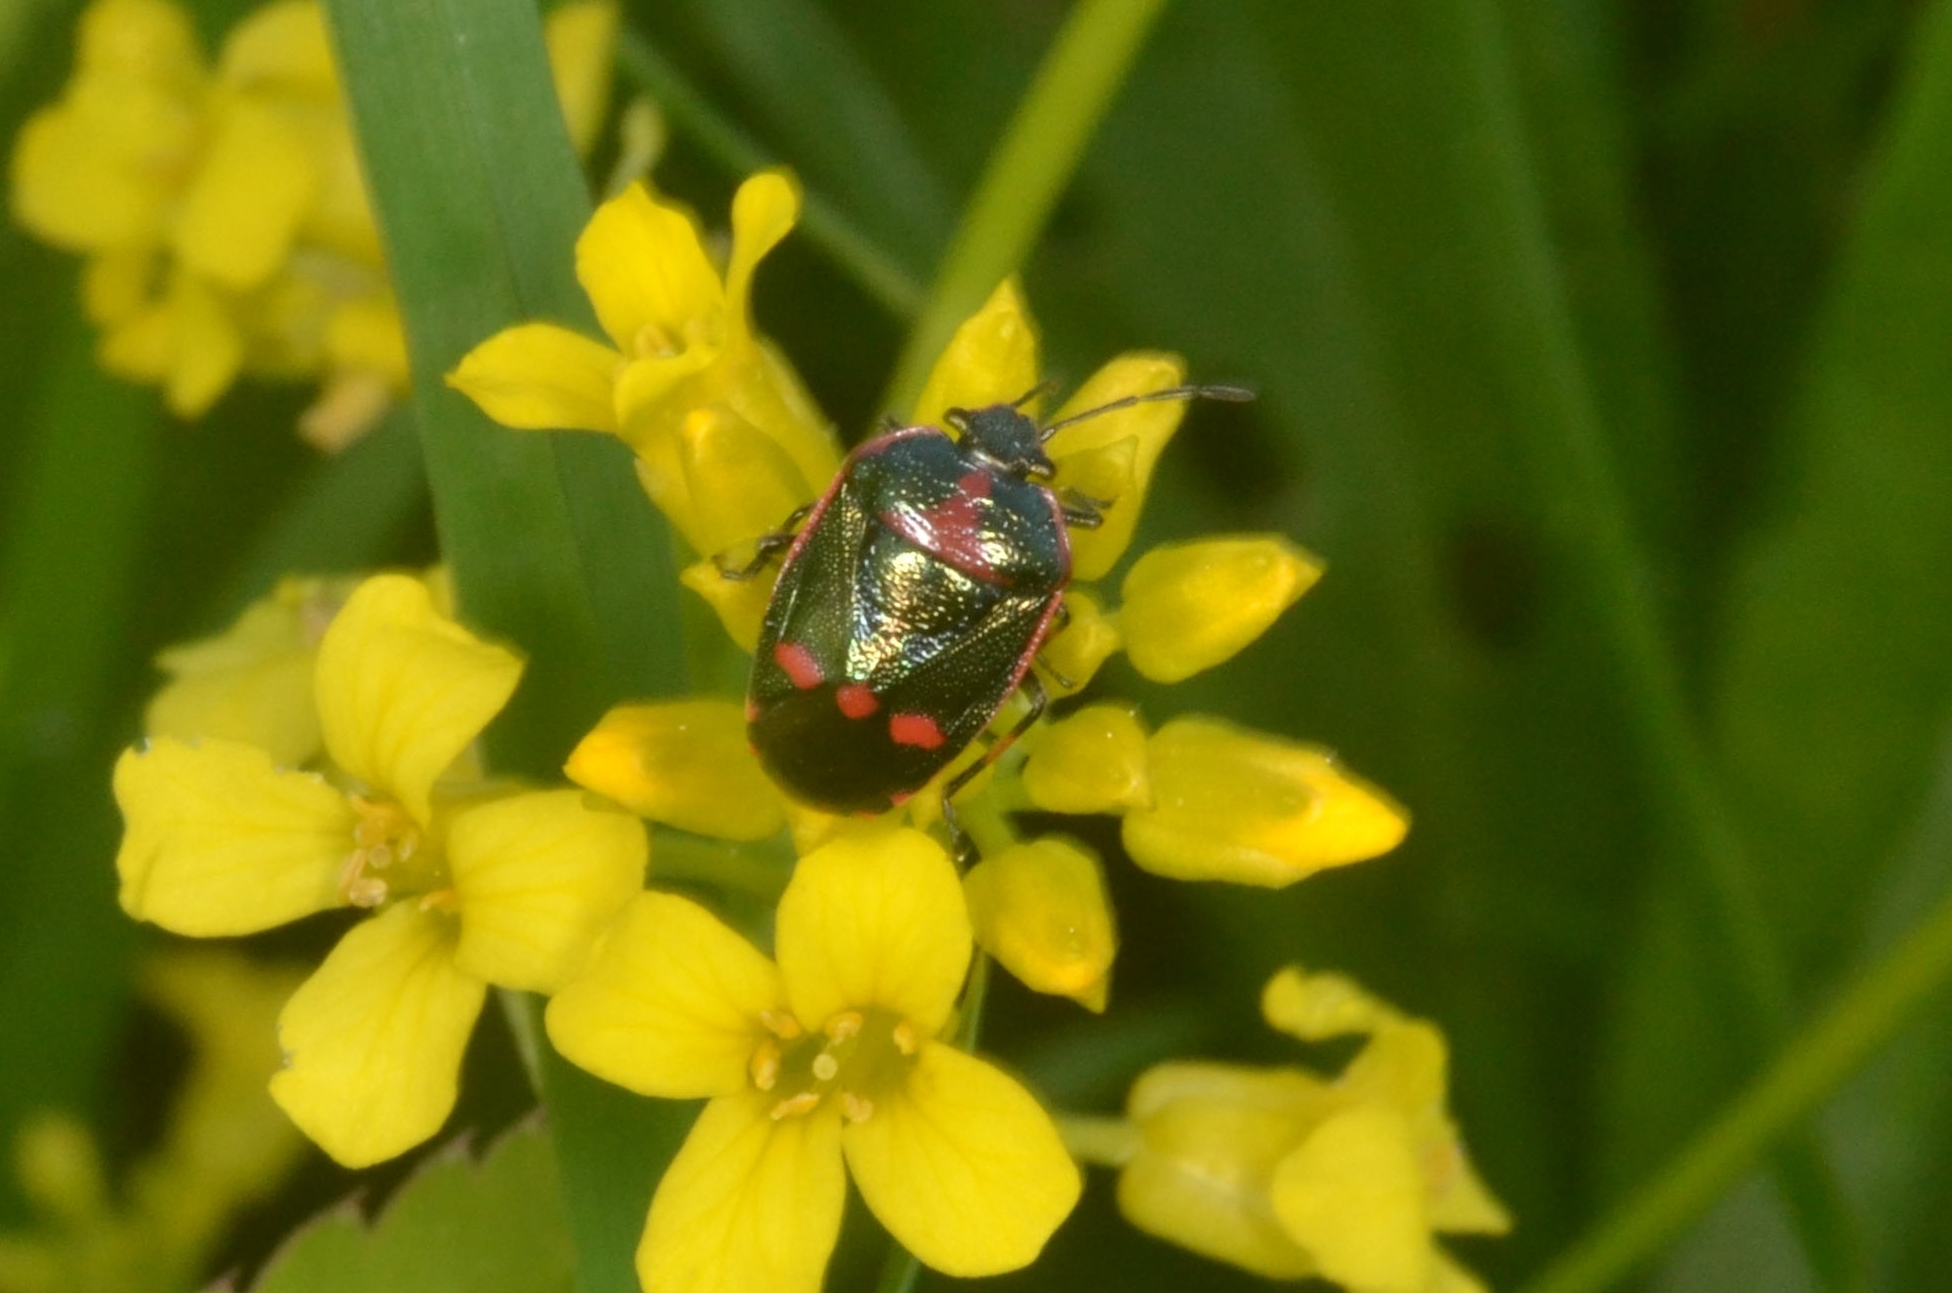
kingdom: Animalia
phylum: Arthropoda
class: Insecta
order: Hemiptera
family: Pentatomidae
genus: Eurydema
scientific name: Eurydema oleracea
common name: Cabbage bug
